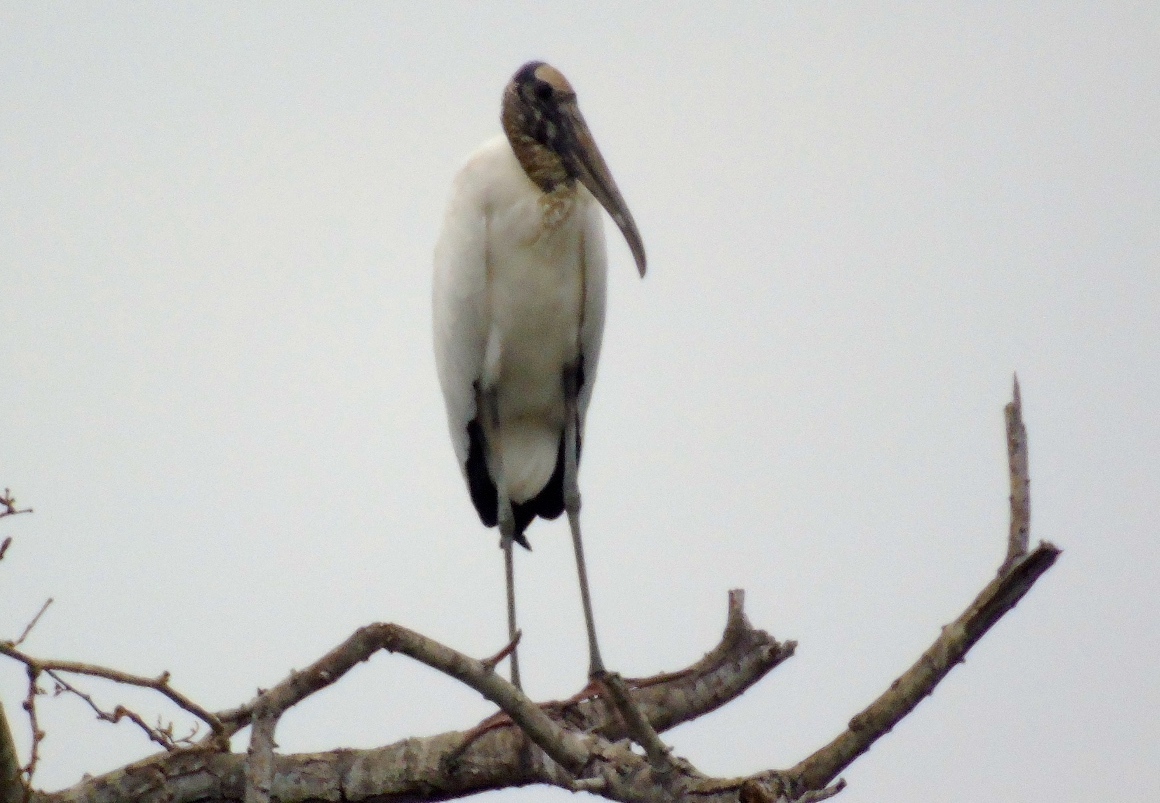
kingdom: Animalia
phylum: Chordata
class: Aves
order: Ciconiiformes
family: Ciconiidae
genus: Mycteria
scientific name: Mycteria americana
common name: Wood stork
